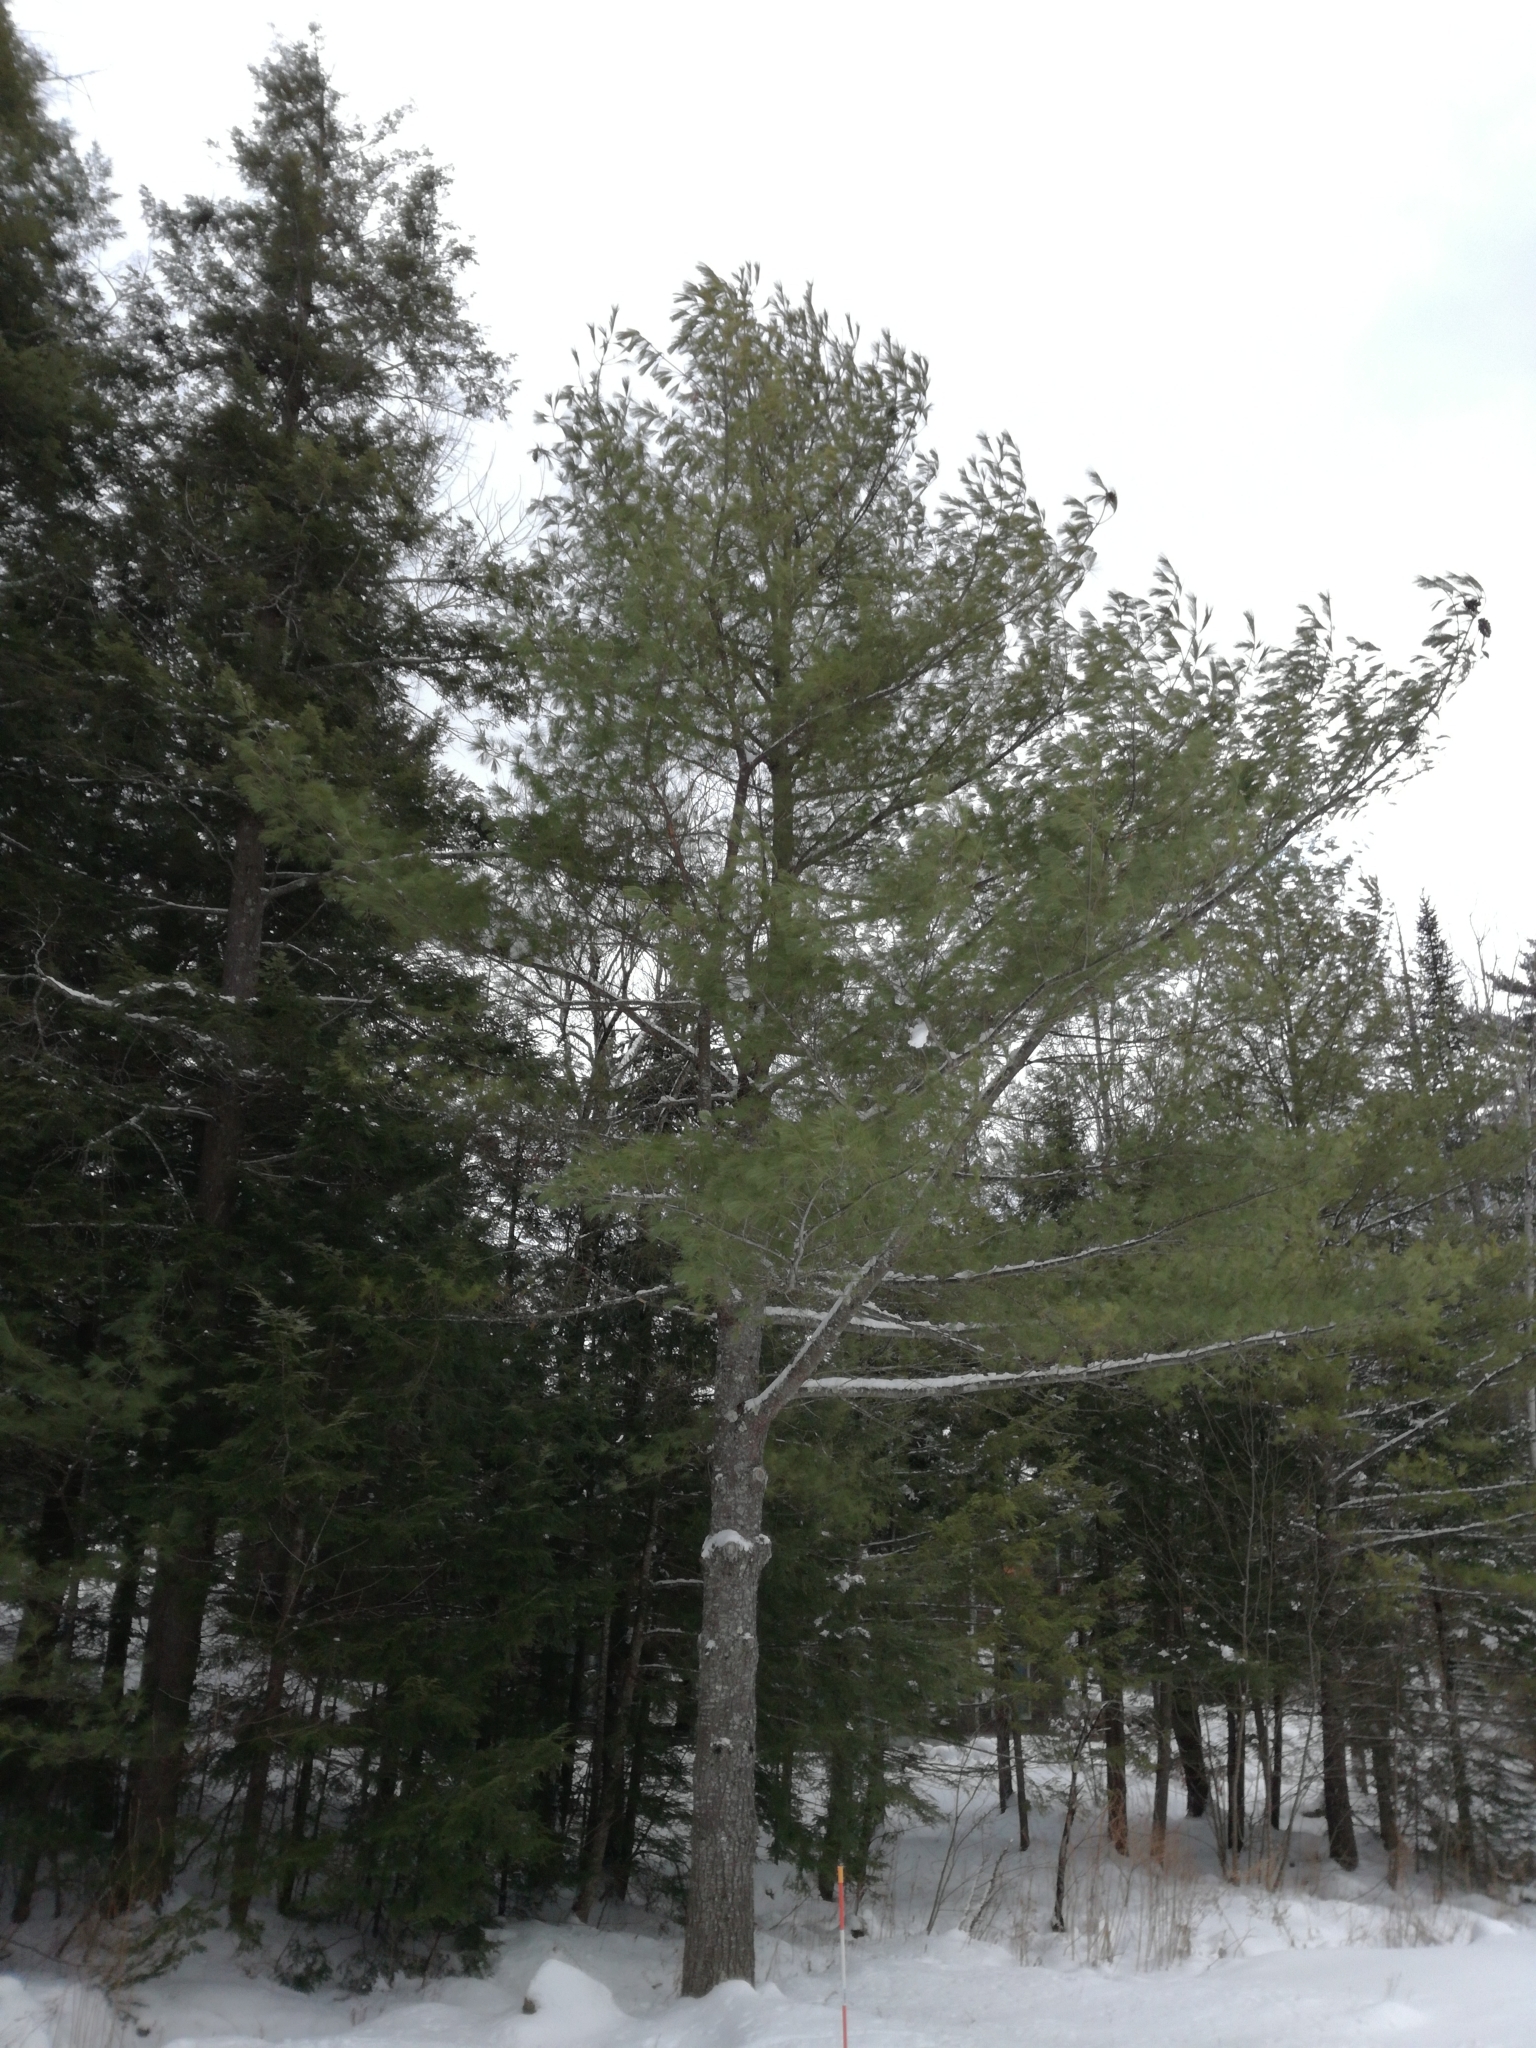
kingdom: Plantae
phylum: Tracheophyta
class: Pinopsida
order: Pinales
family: Pinaceae
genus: Pinus
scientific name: Pinus strobus
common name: Weymouth pine
